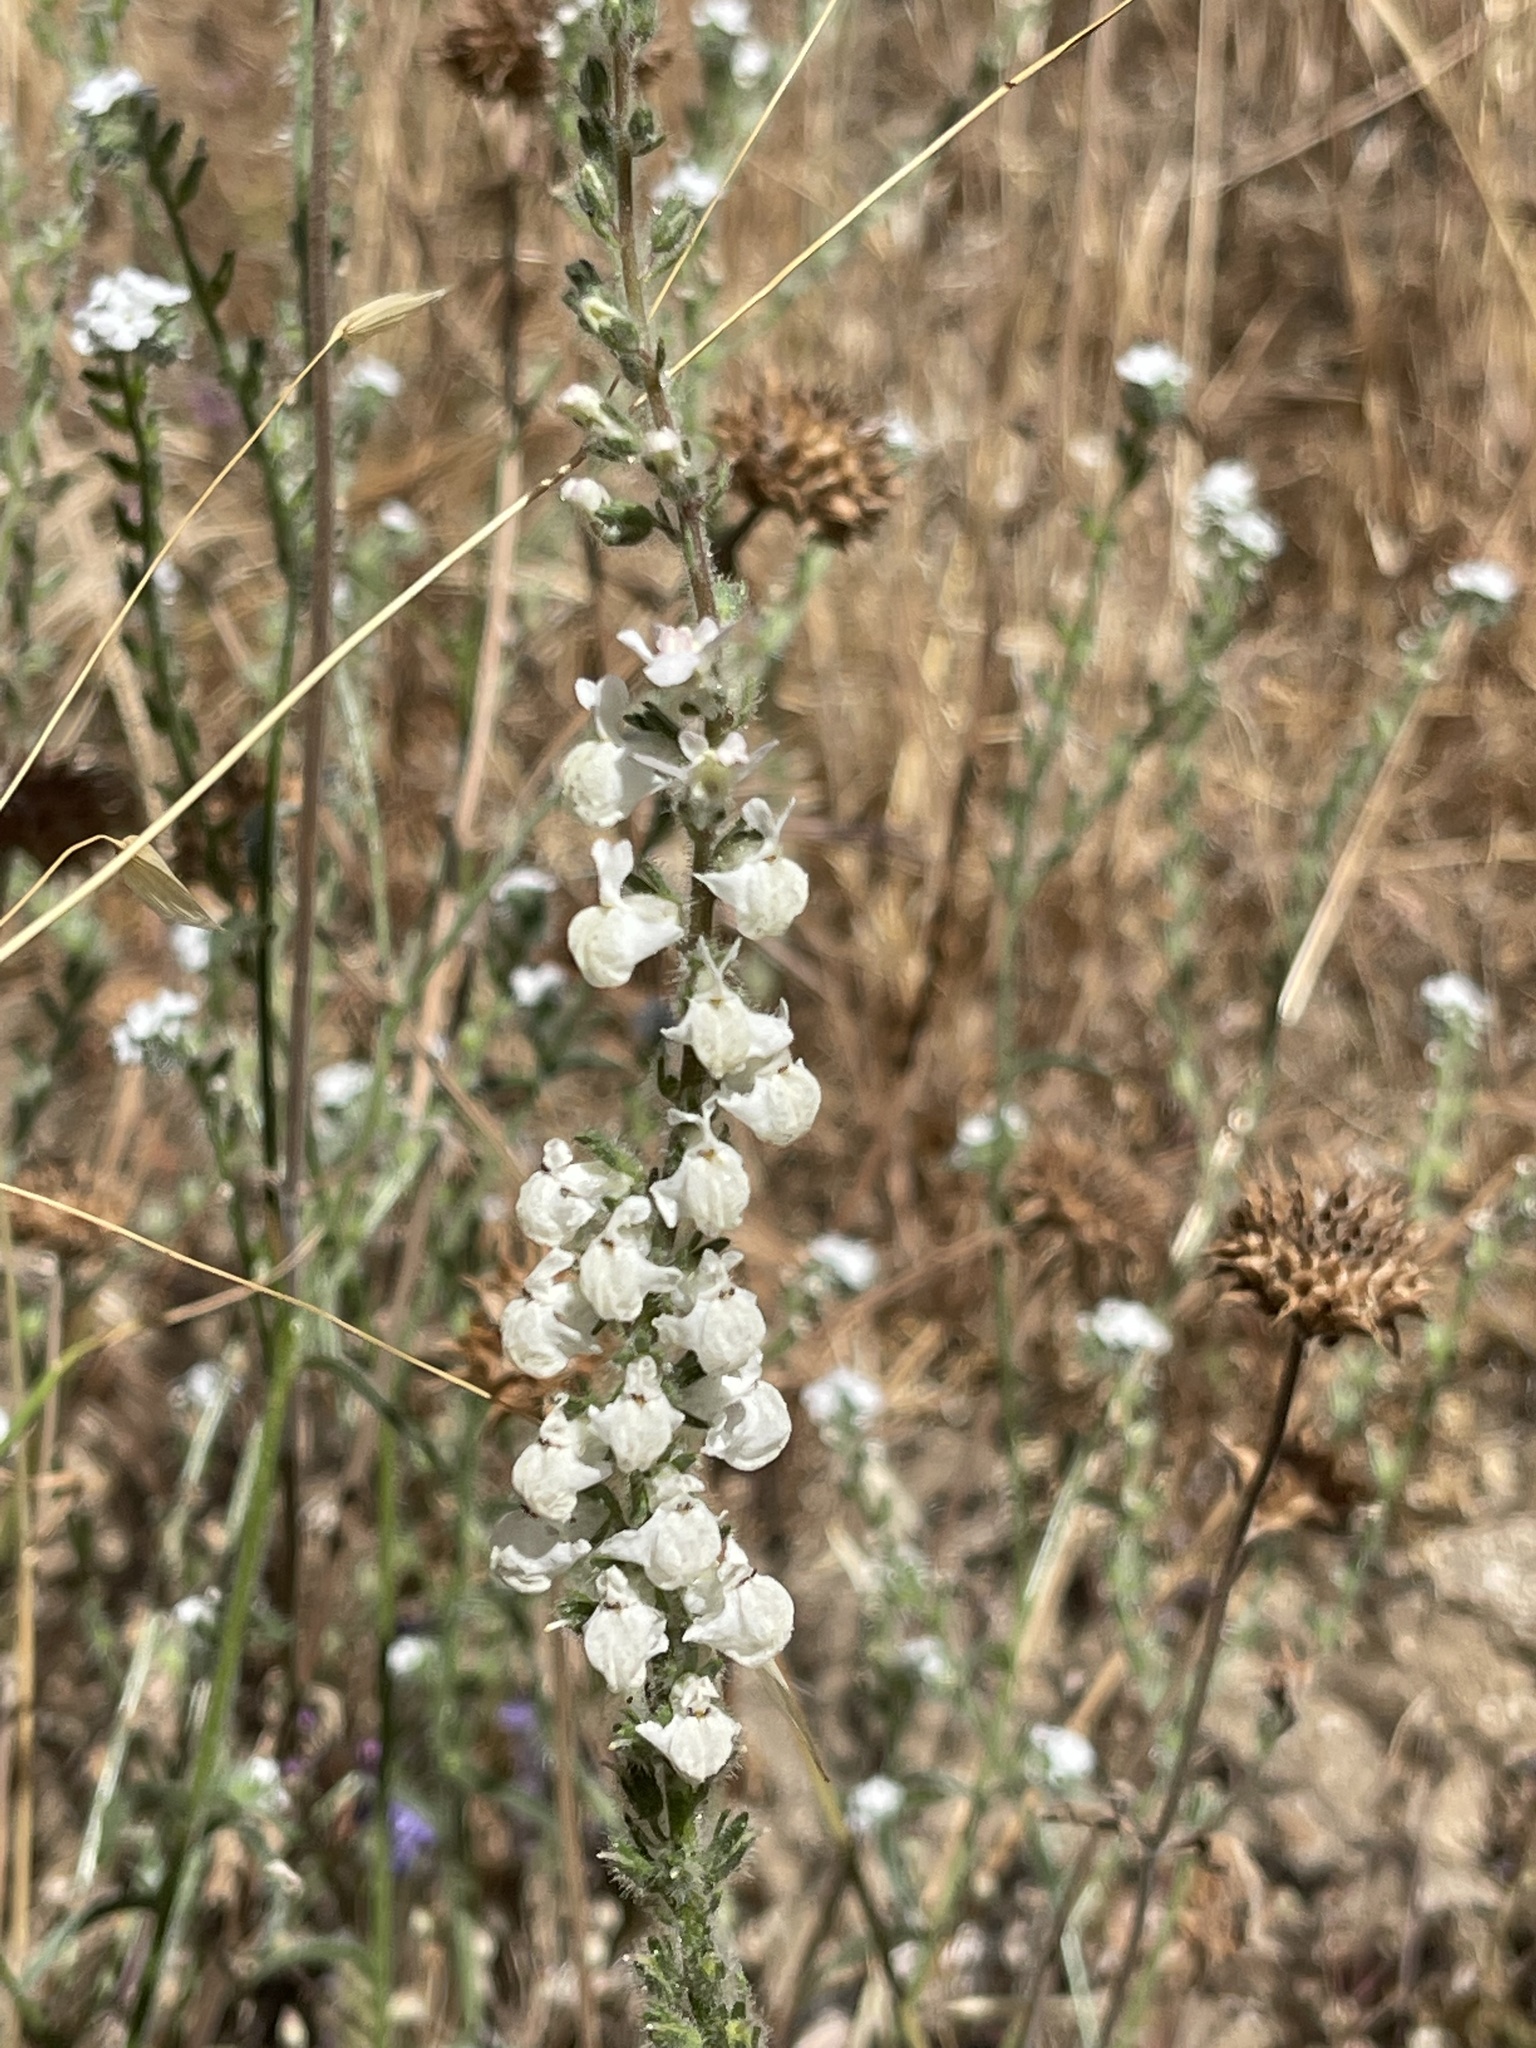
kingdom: Plantae
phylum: Tracheophyta
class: Magnoliopsida
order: Lamiales
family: Plantaginaceae
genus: Sairocarpus
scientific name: Sairocarpus coulterianus
